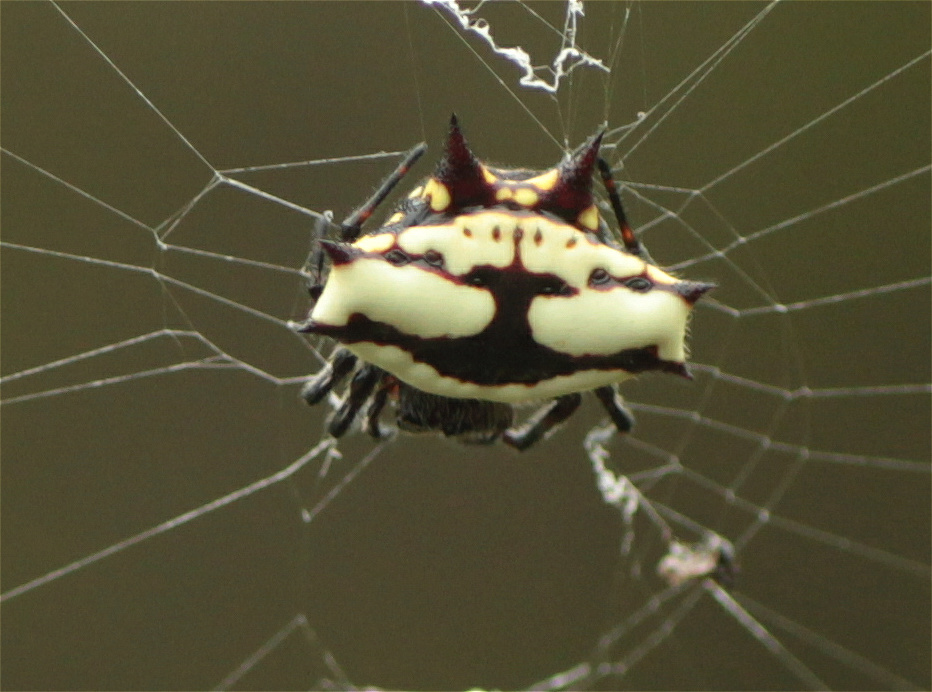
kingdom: Animalia
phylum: Arthropoda
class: Arachnida
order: Araneae
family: Araneidae
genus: Gasteracantha
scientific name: Gasteracantha cancriformis
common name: Orb weavers
